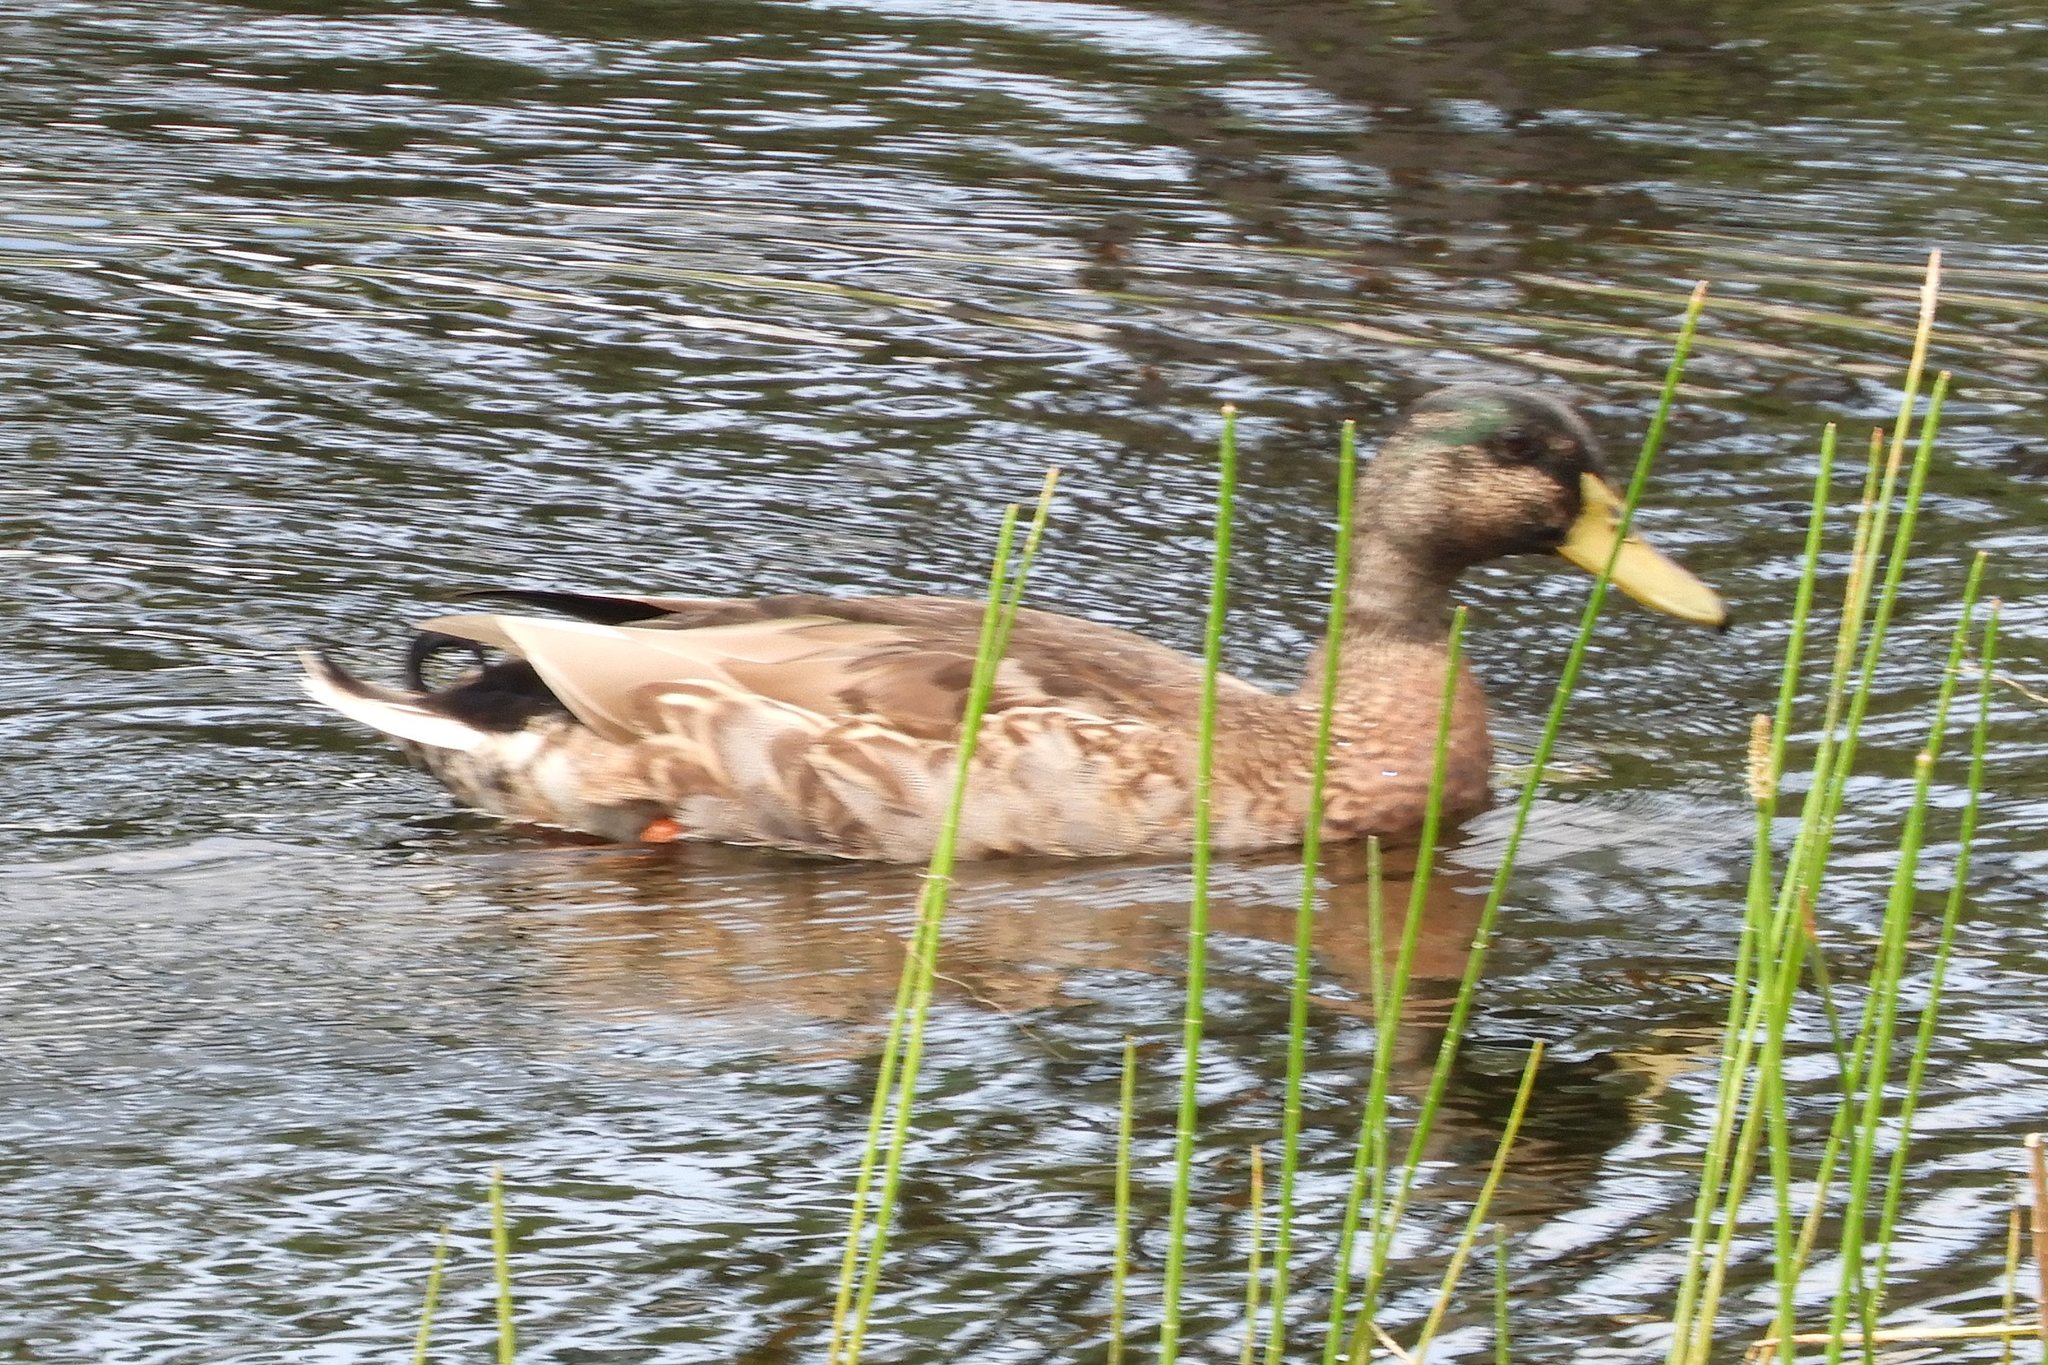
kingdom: Animalia
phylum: Chordata
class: Aves
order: Anseriformes
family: Anatidae
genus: Anas
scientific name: Anas platyrhynchos
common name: Mallard
